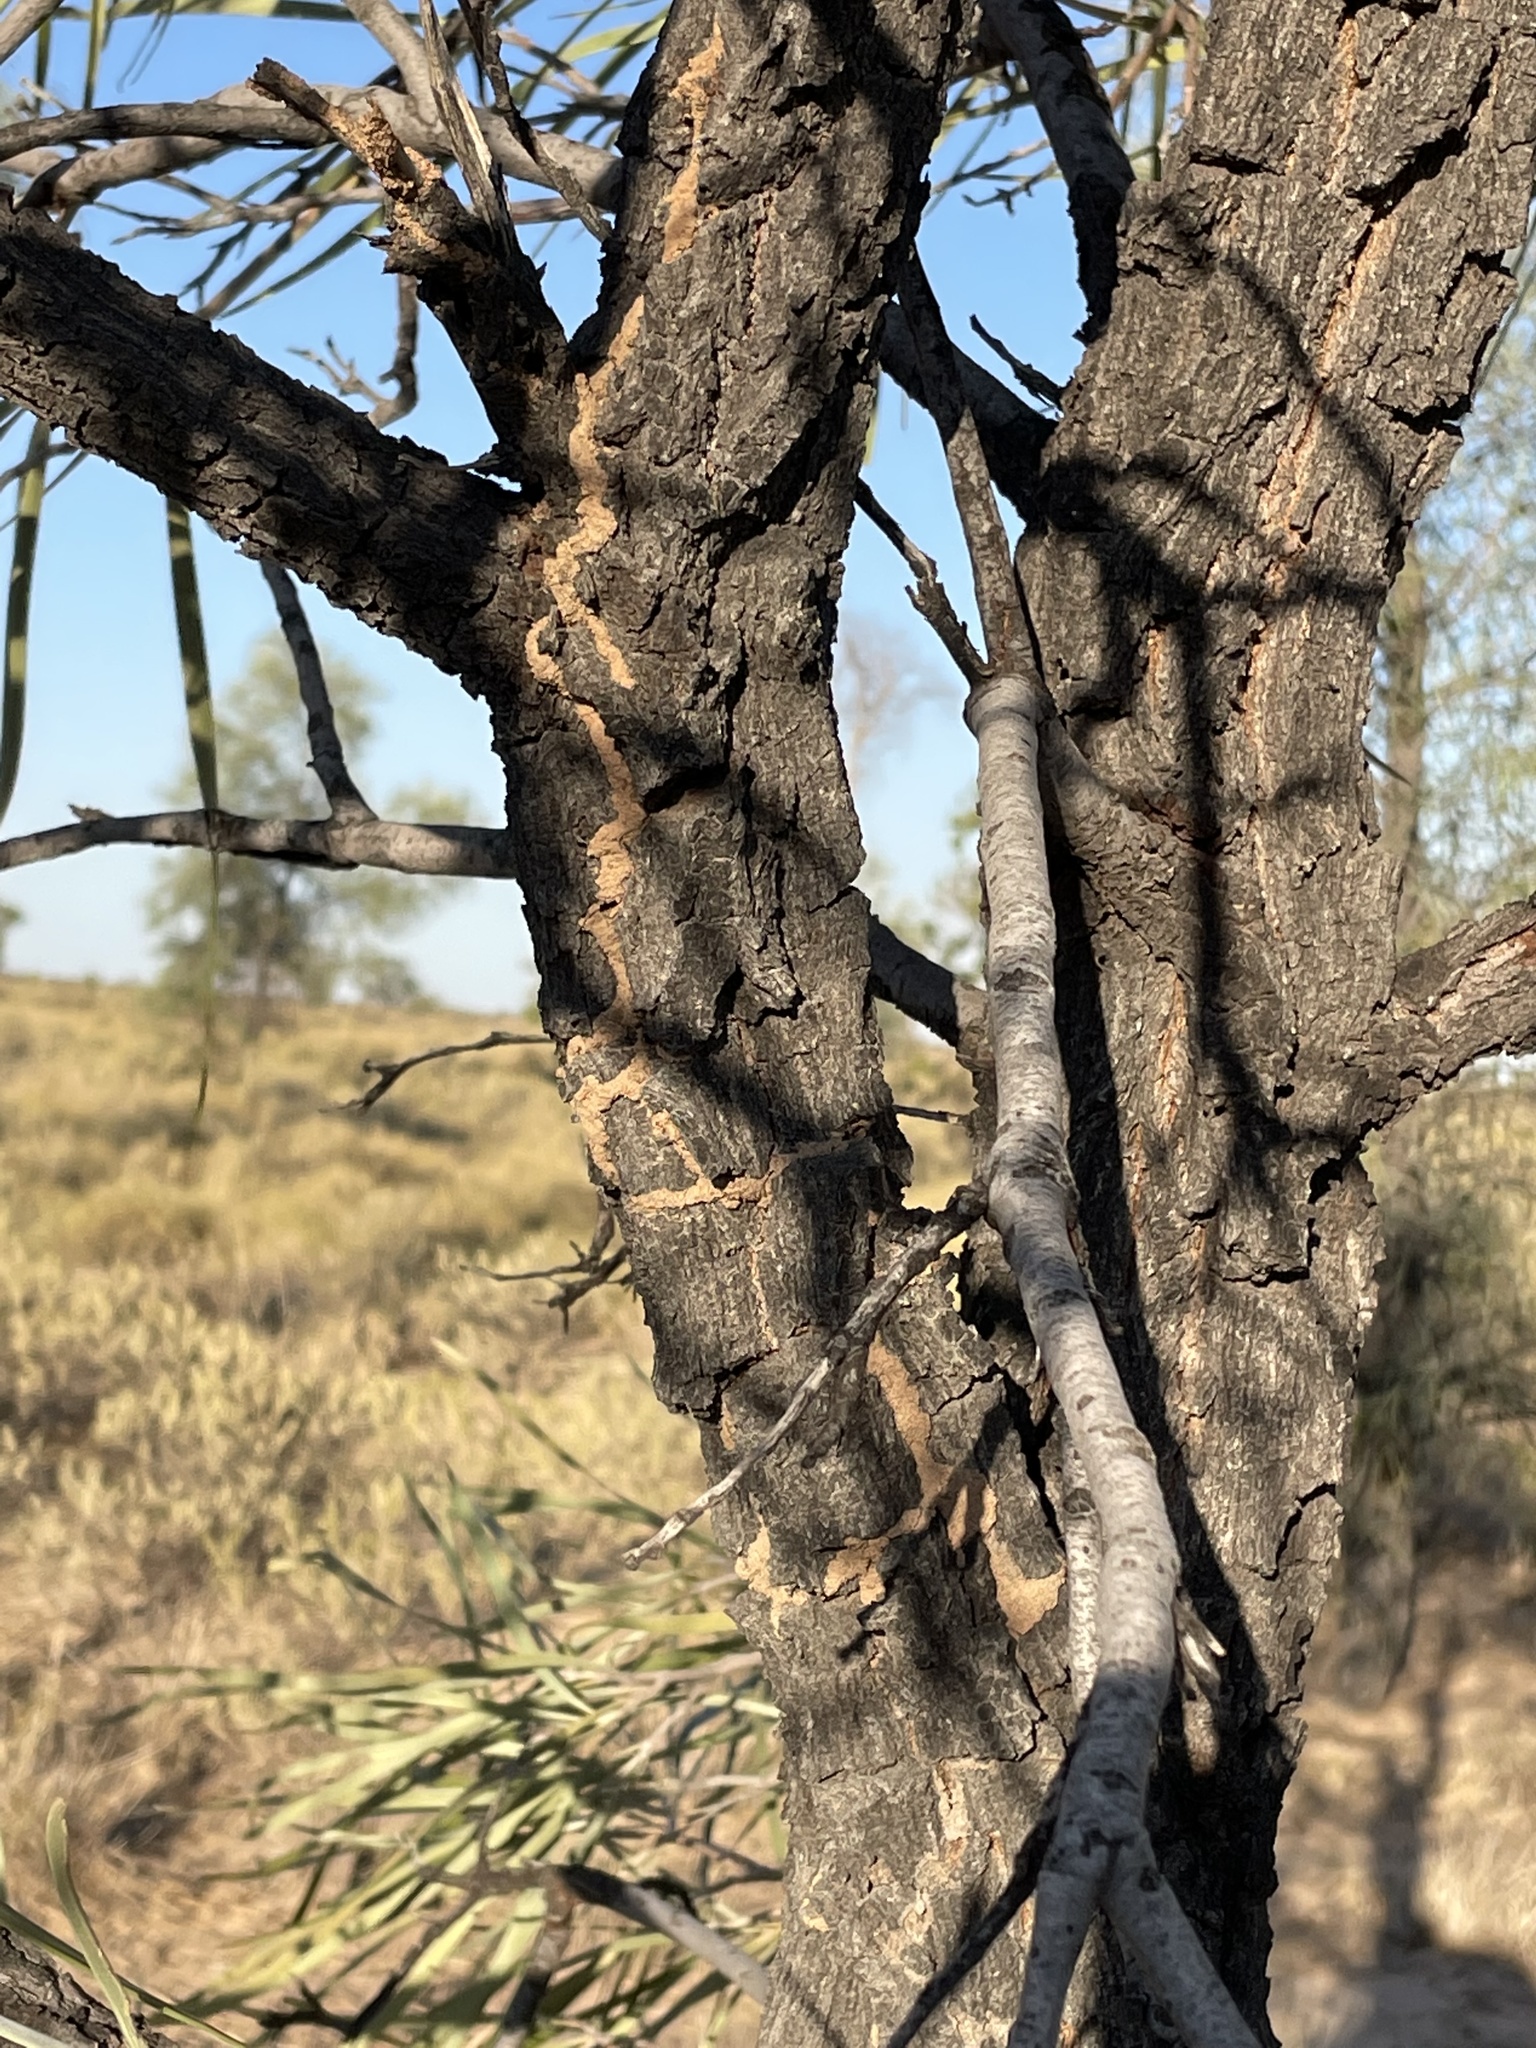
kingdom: Plantae
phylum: Tracheophyta
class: Magnoliopsida
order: Proteales
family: Proteaceae
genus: Grevillea
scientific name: Grevillea striata
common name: Beefwood
